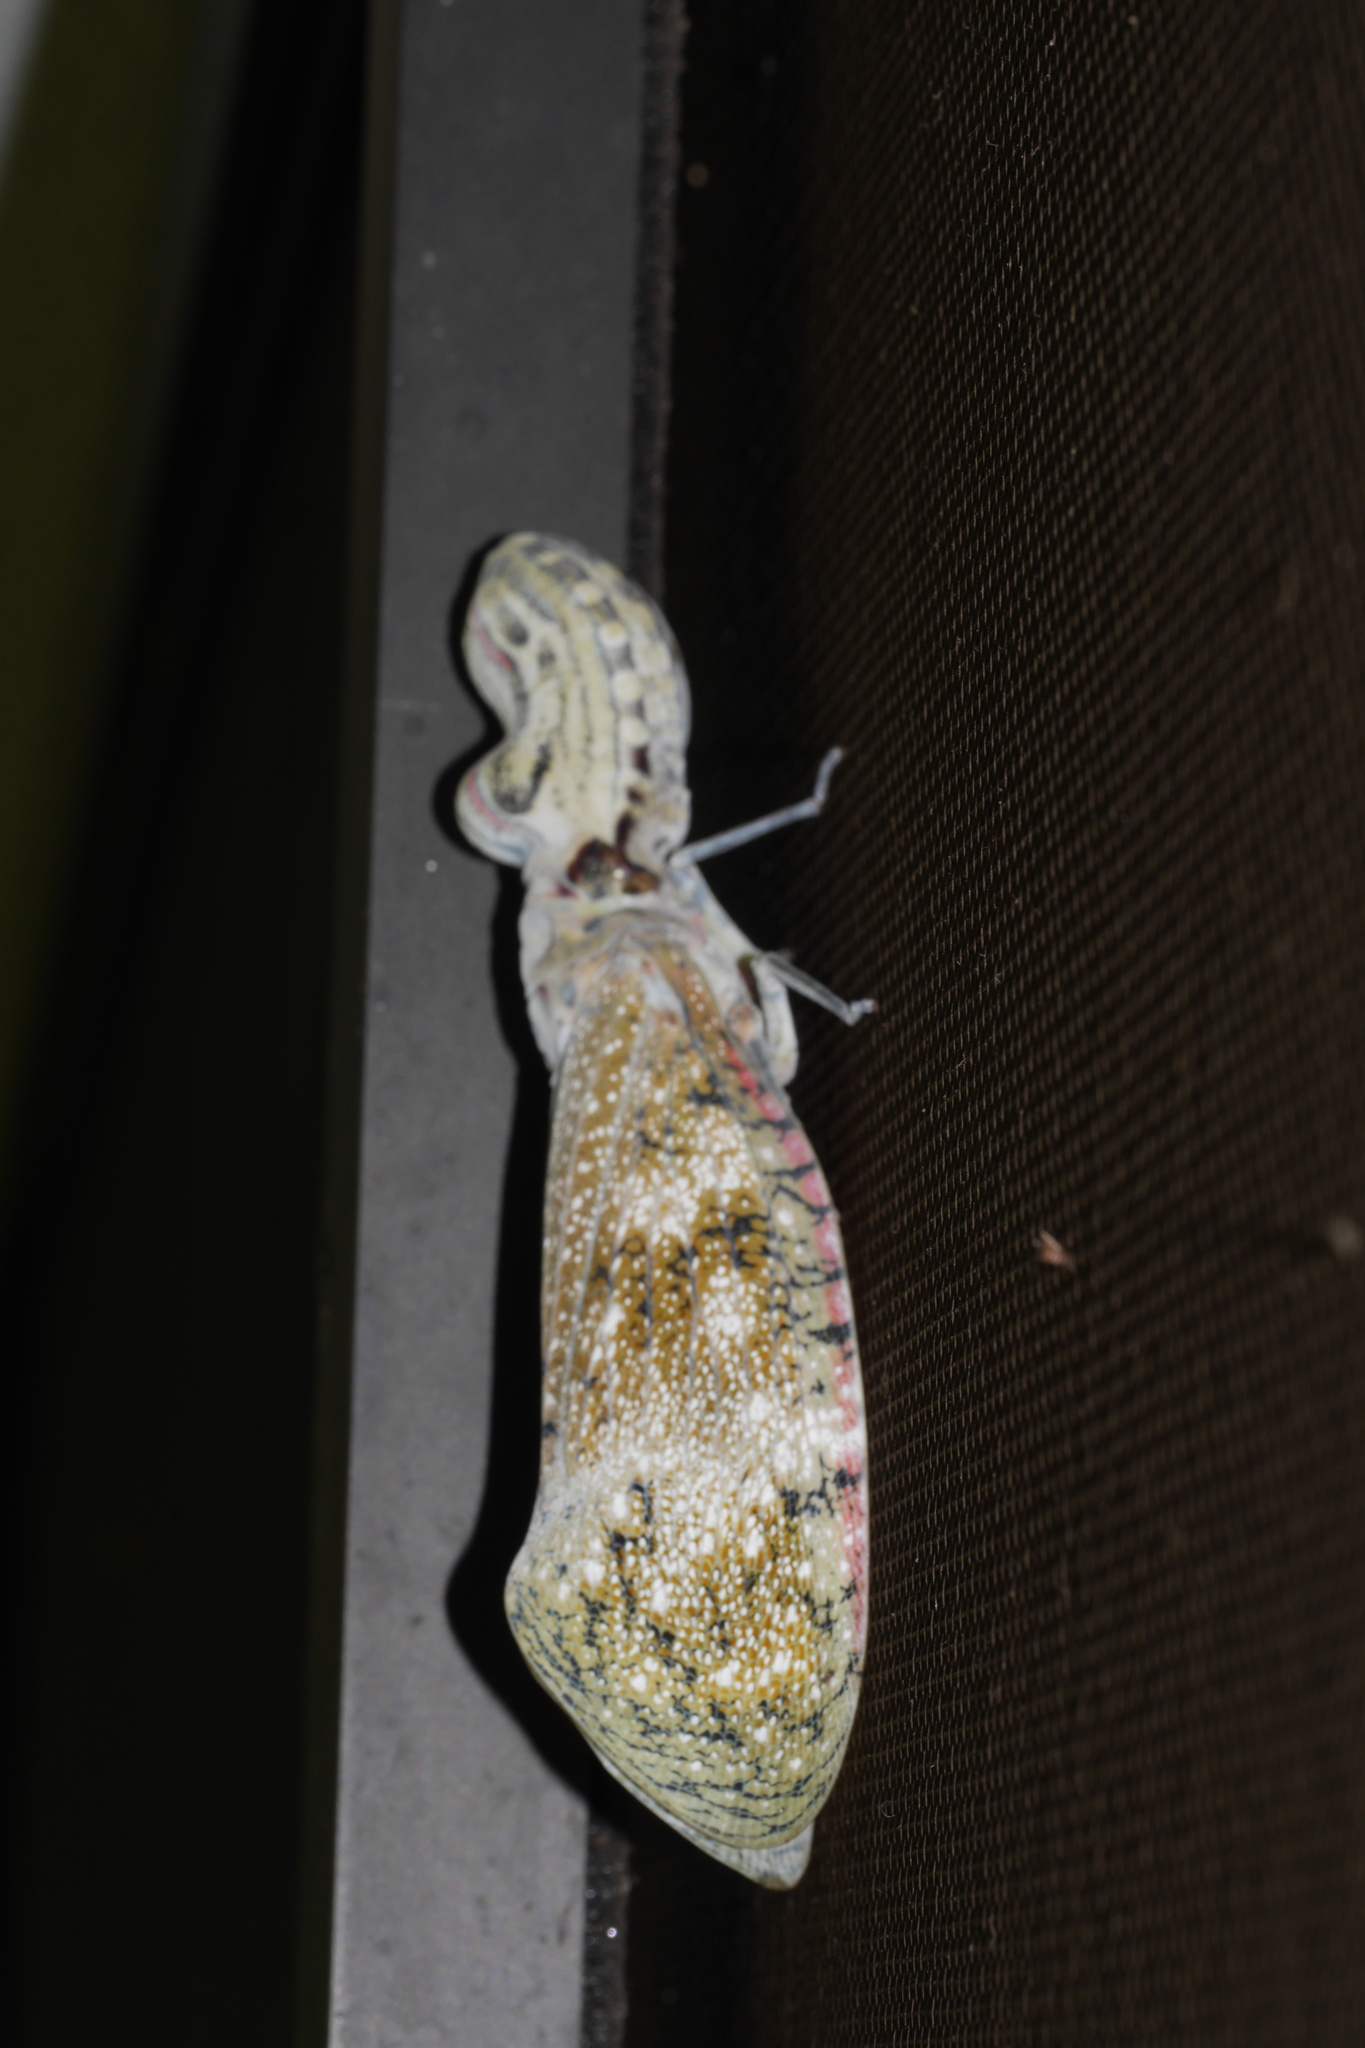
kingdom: Animalia
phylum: Arthropoda
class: Insecta
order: Hemiptera
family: Fulgoridae
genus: Fulgora
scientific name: Fulgora laternaria
